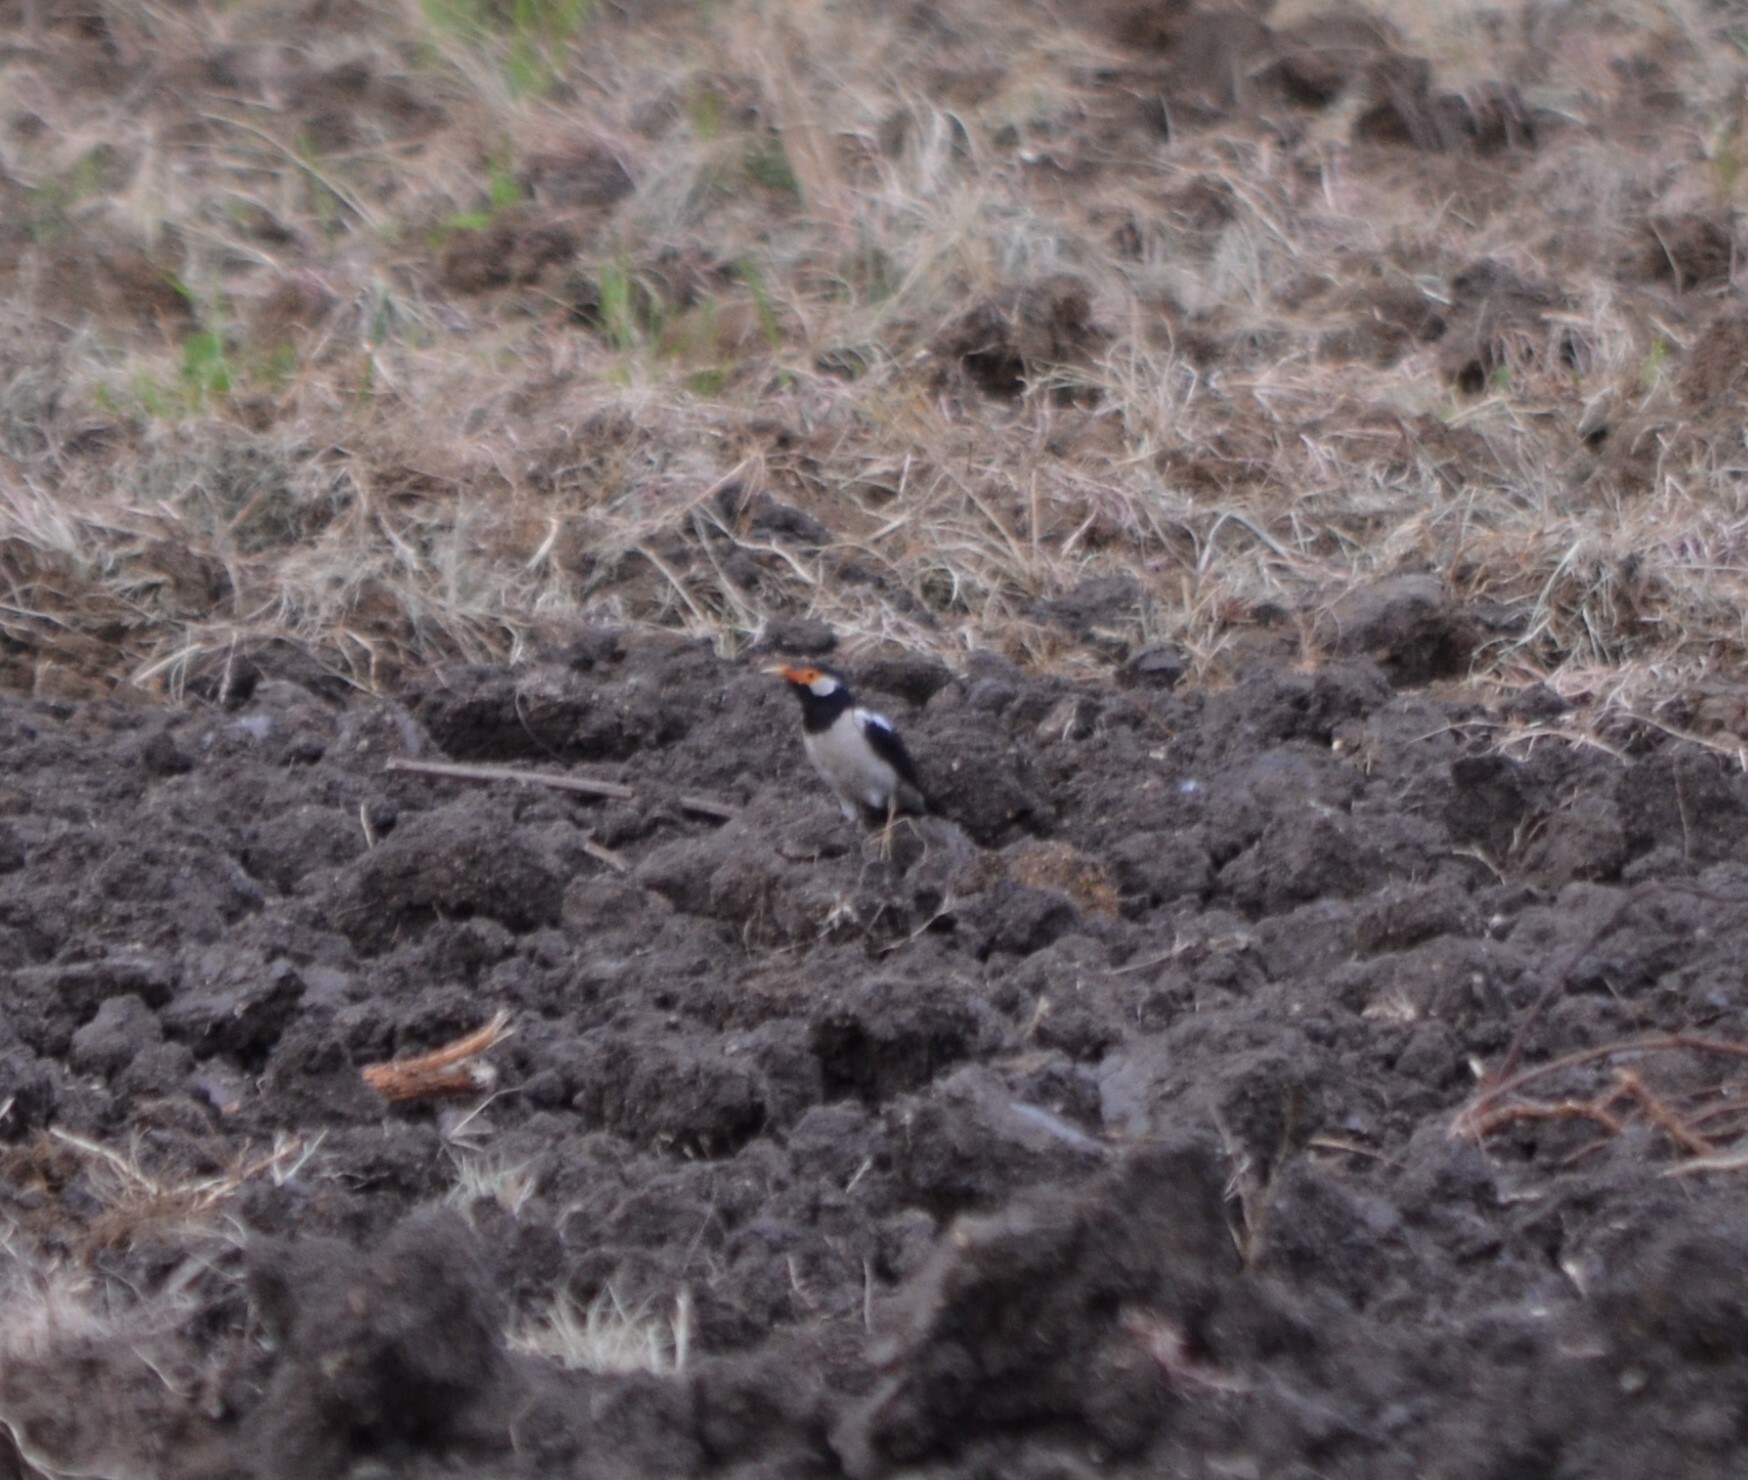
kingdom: Animalia
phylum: Chordata
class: Aves
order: Passeriformes
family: Sturnidae
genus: Gracupica
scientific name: Gracupica contra
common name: Pied myna
